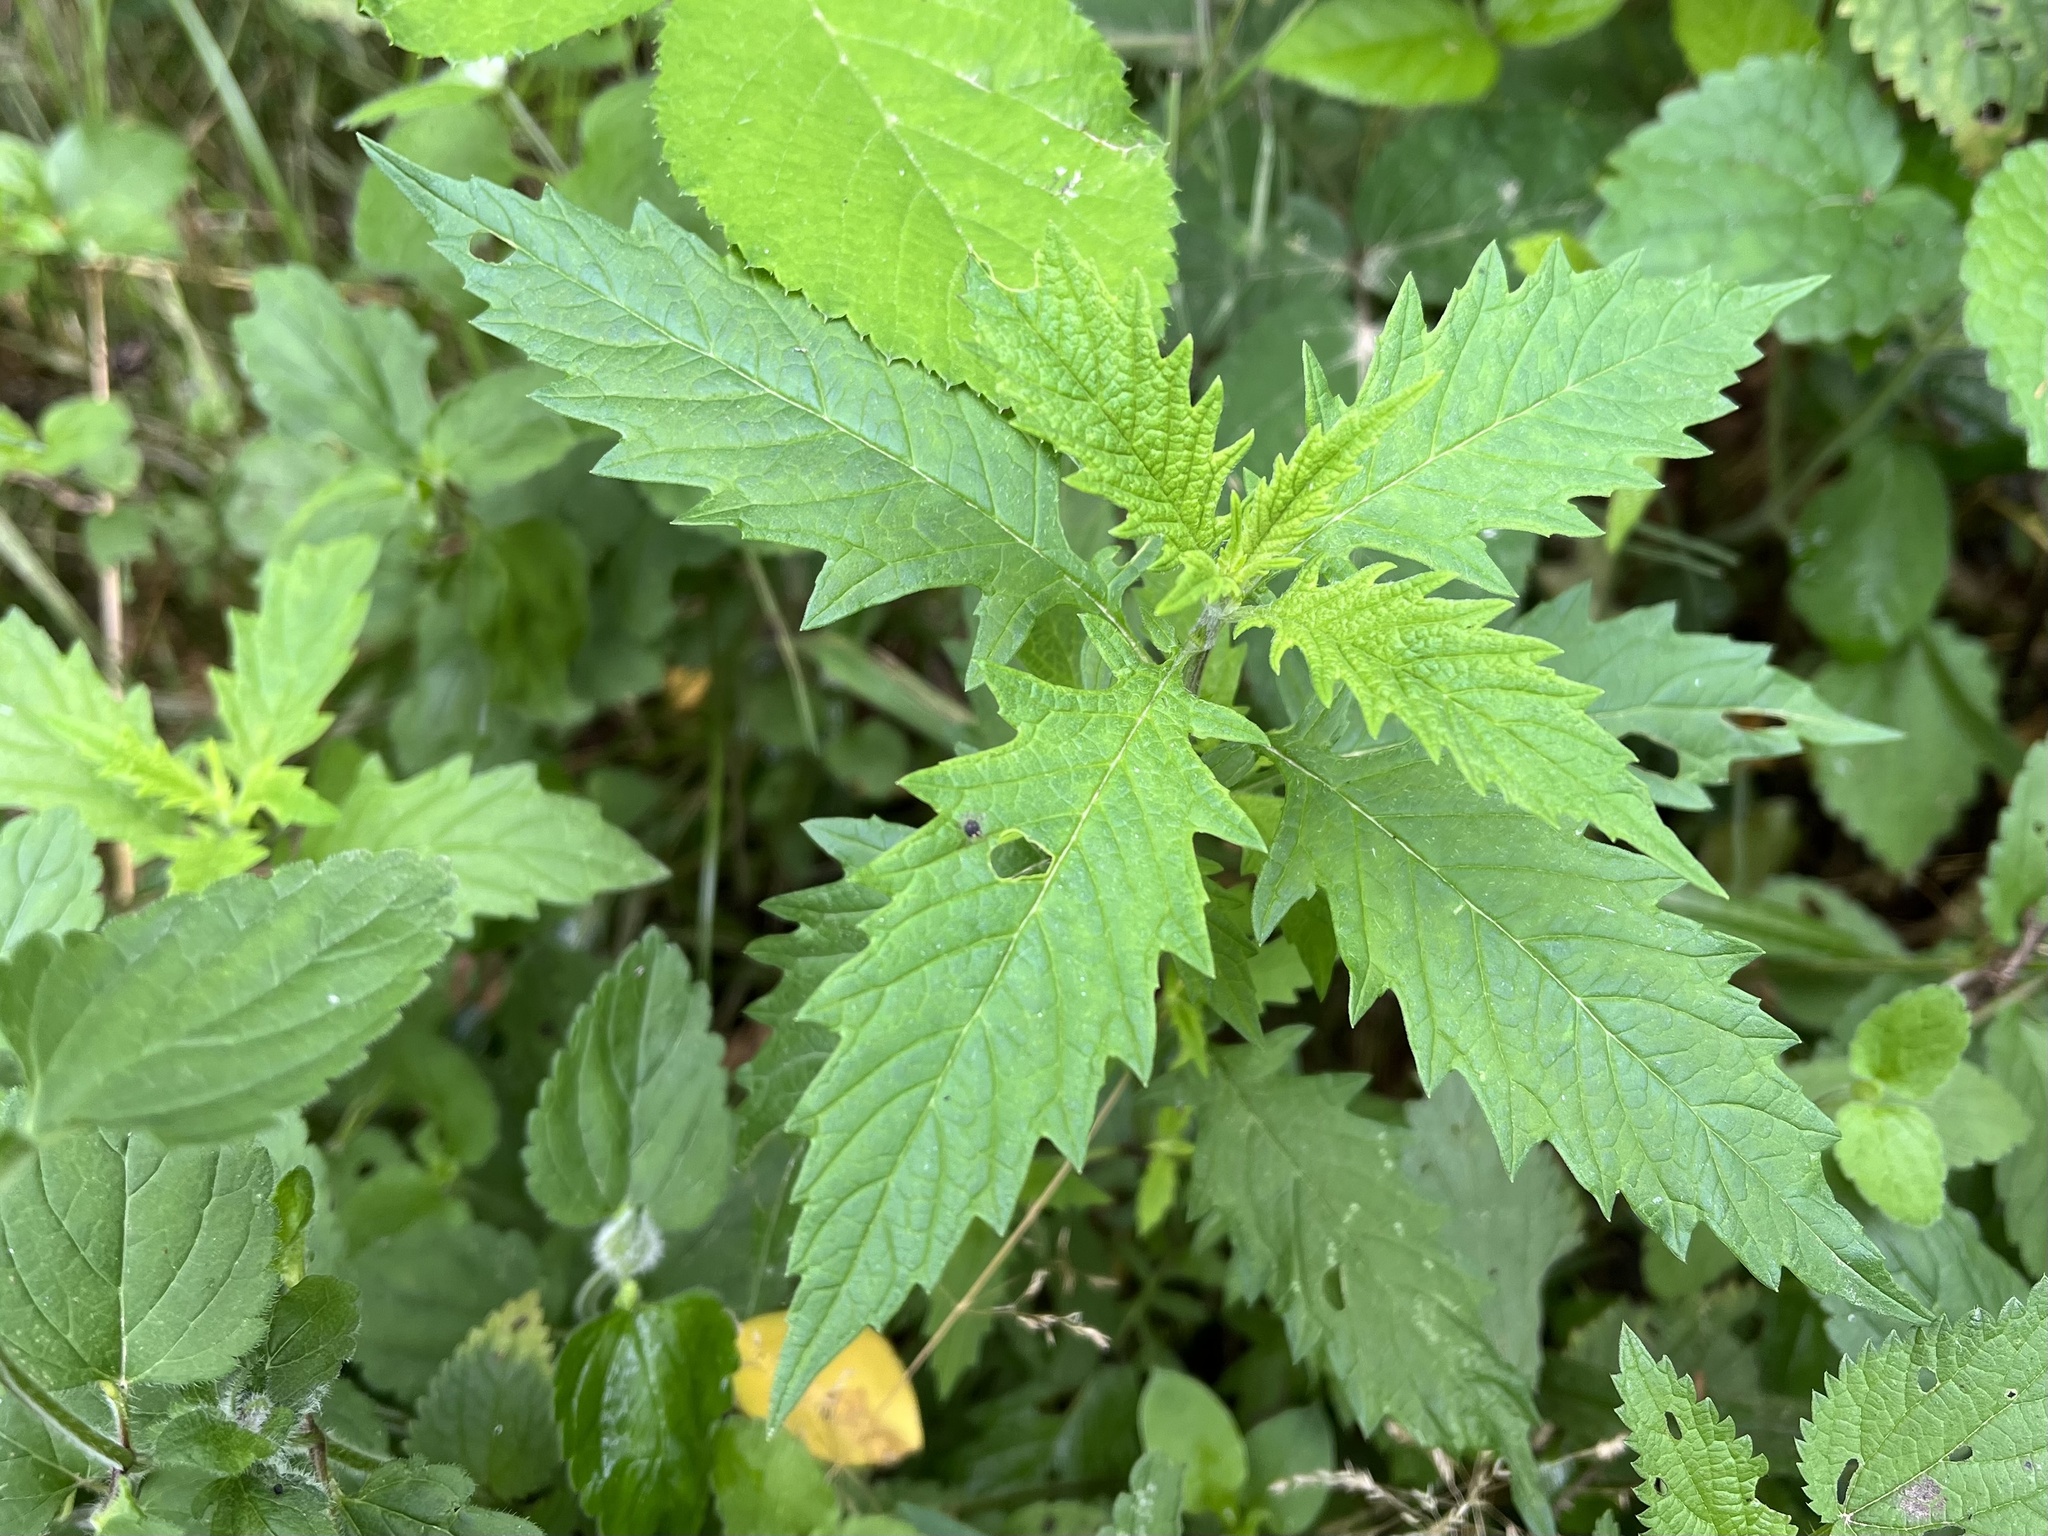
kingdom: Plantae
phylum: Tracheophyta
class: Magnoliopsida
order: Lamiales
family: Lamiaceae
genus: Lycopus
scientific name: Lycopus europaeus
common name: European bugleweed
